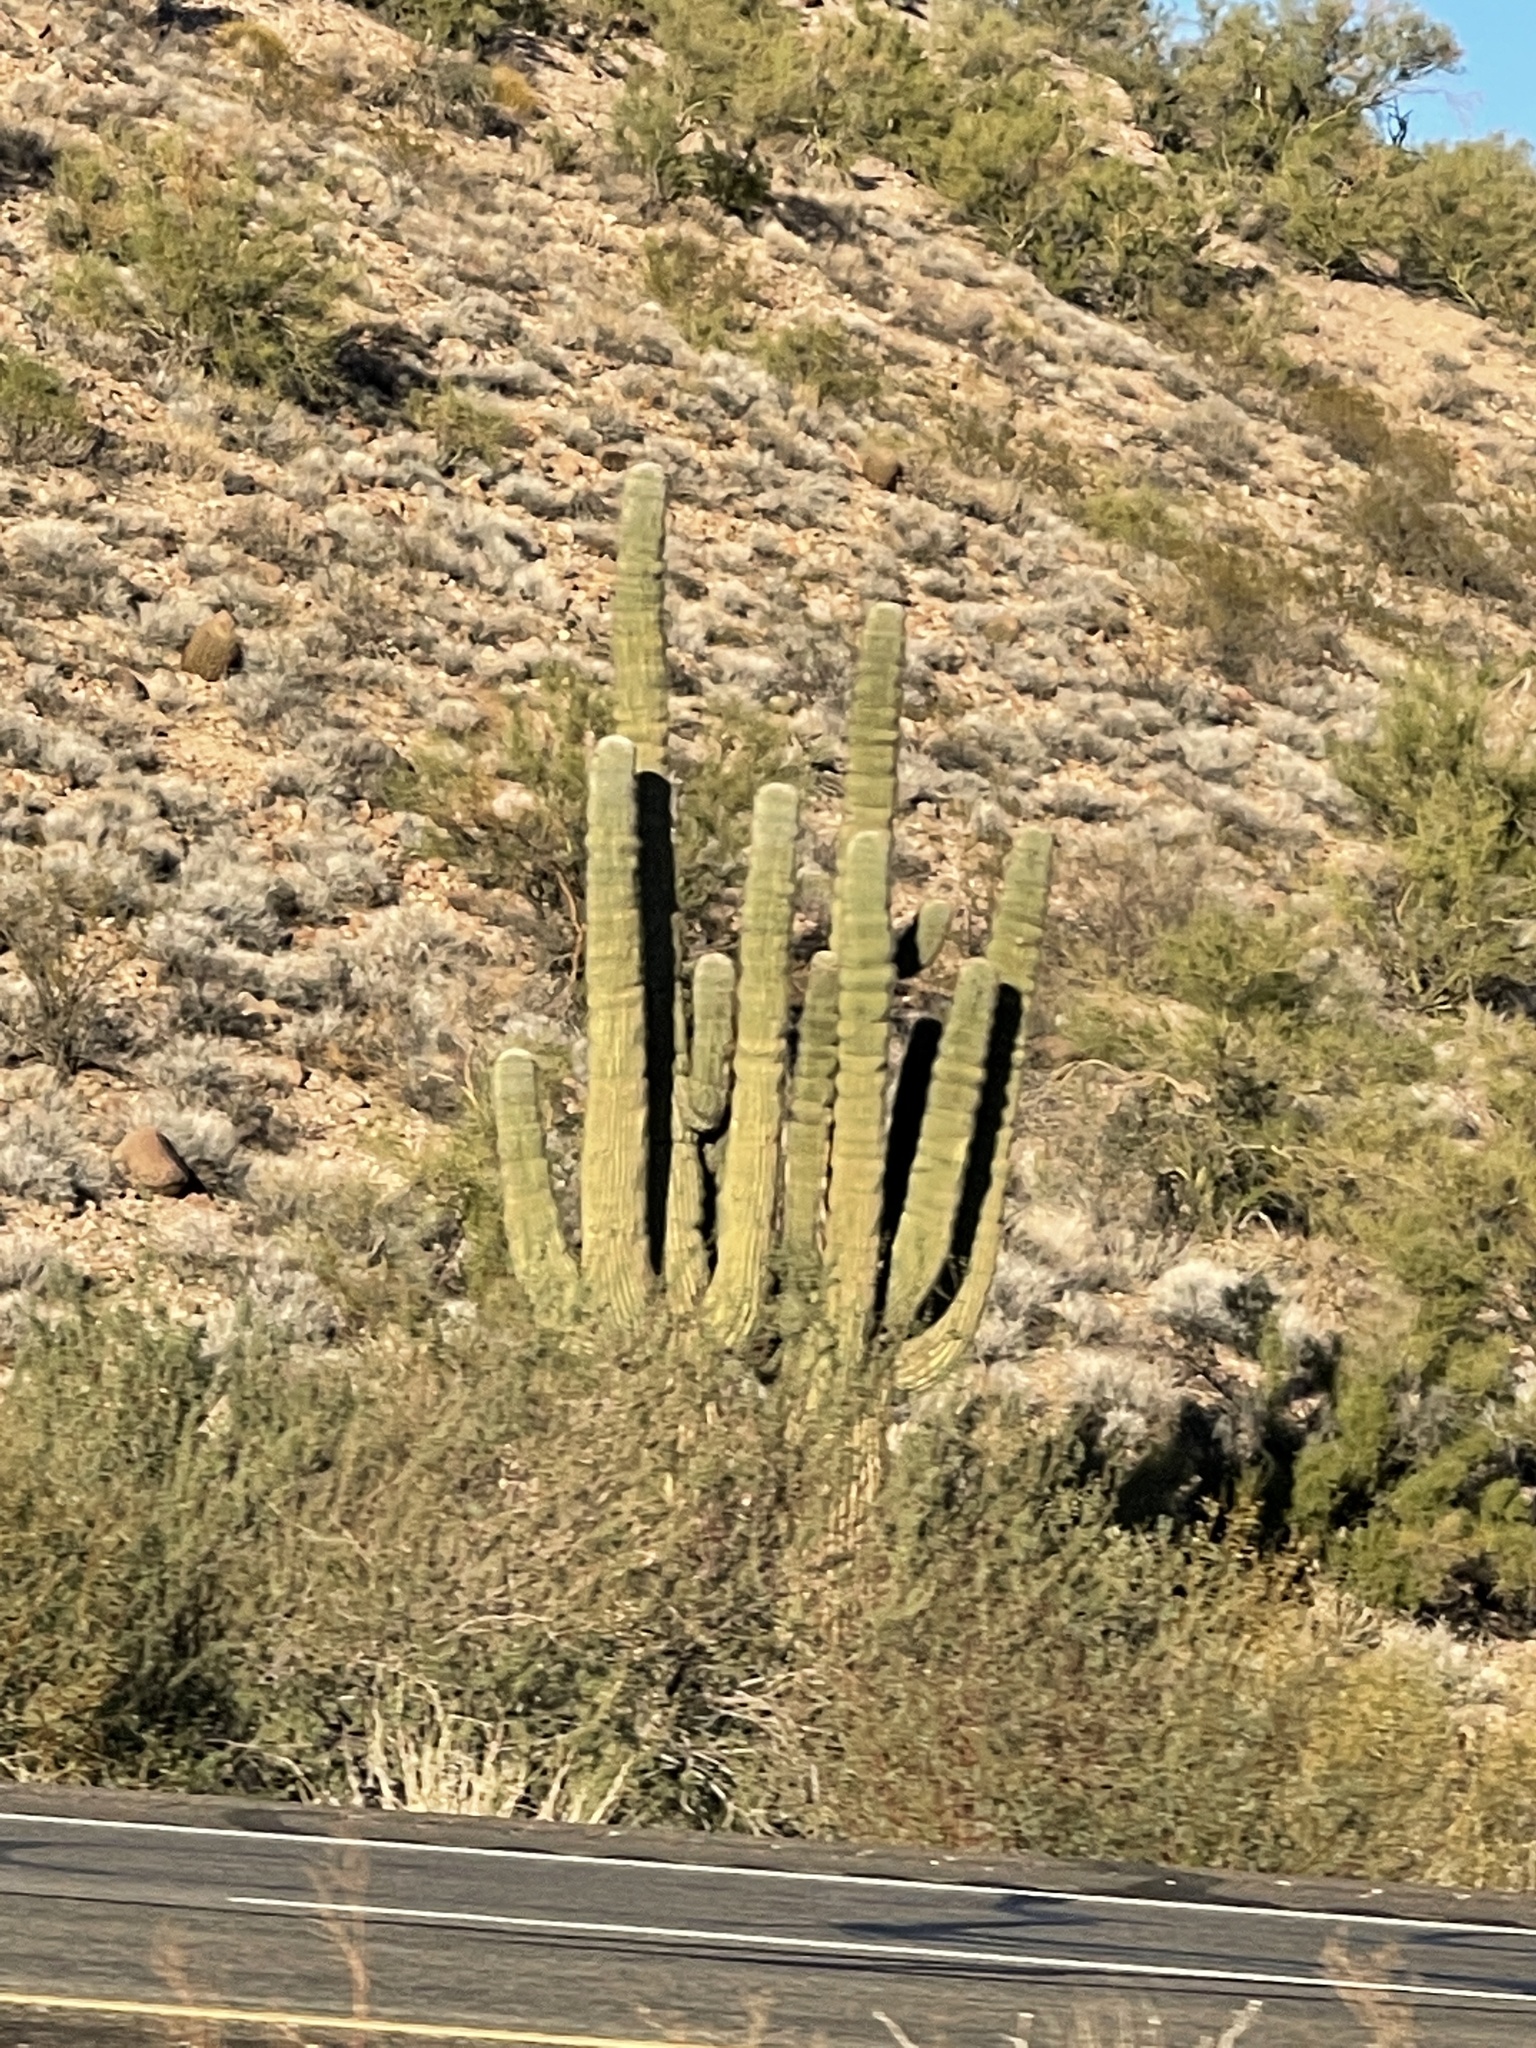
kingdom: Plantae
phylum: Tracheophyta
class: Magnoliopsida
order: Caryophyllales
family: Cactaceae
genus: Carnegiea
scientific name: Carnegiea gigantea
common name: Saguaro
